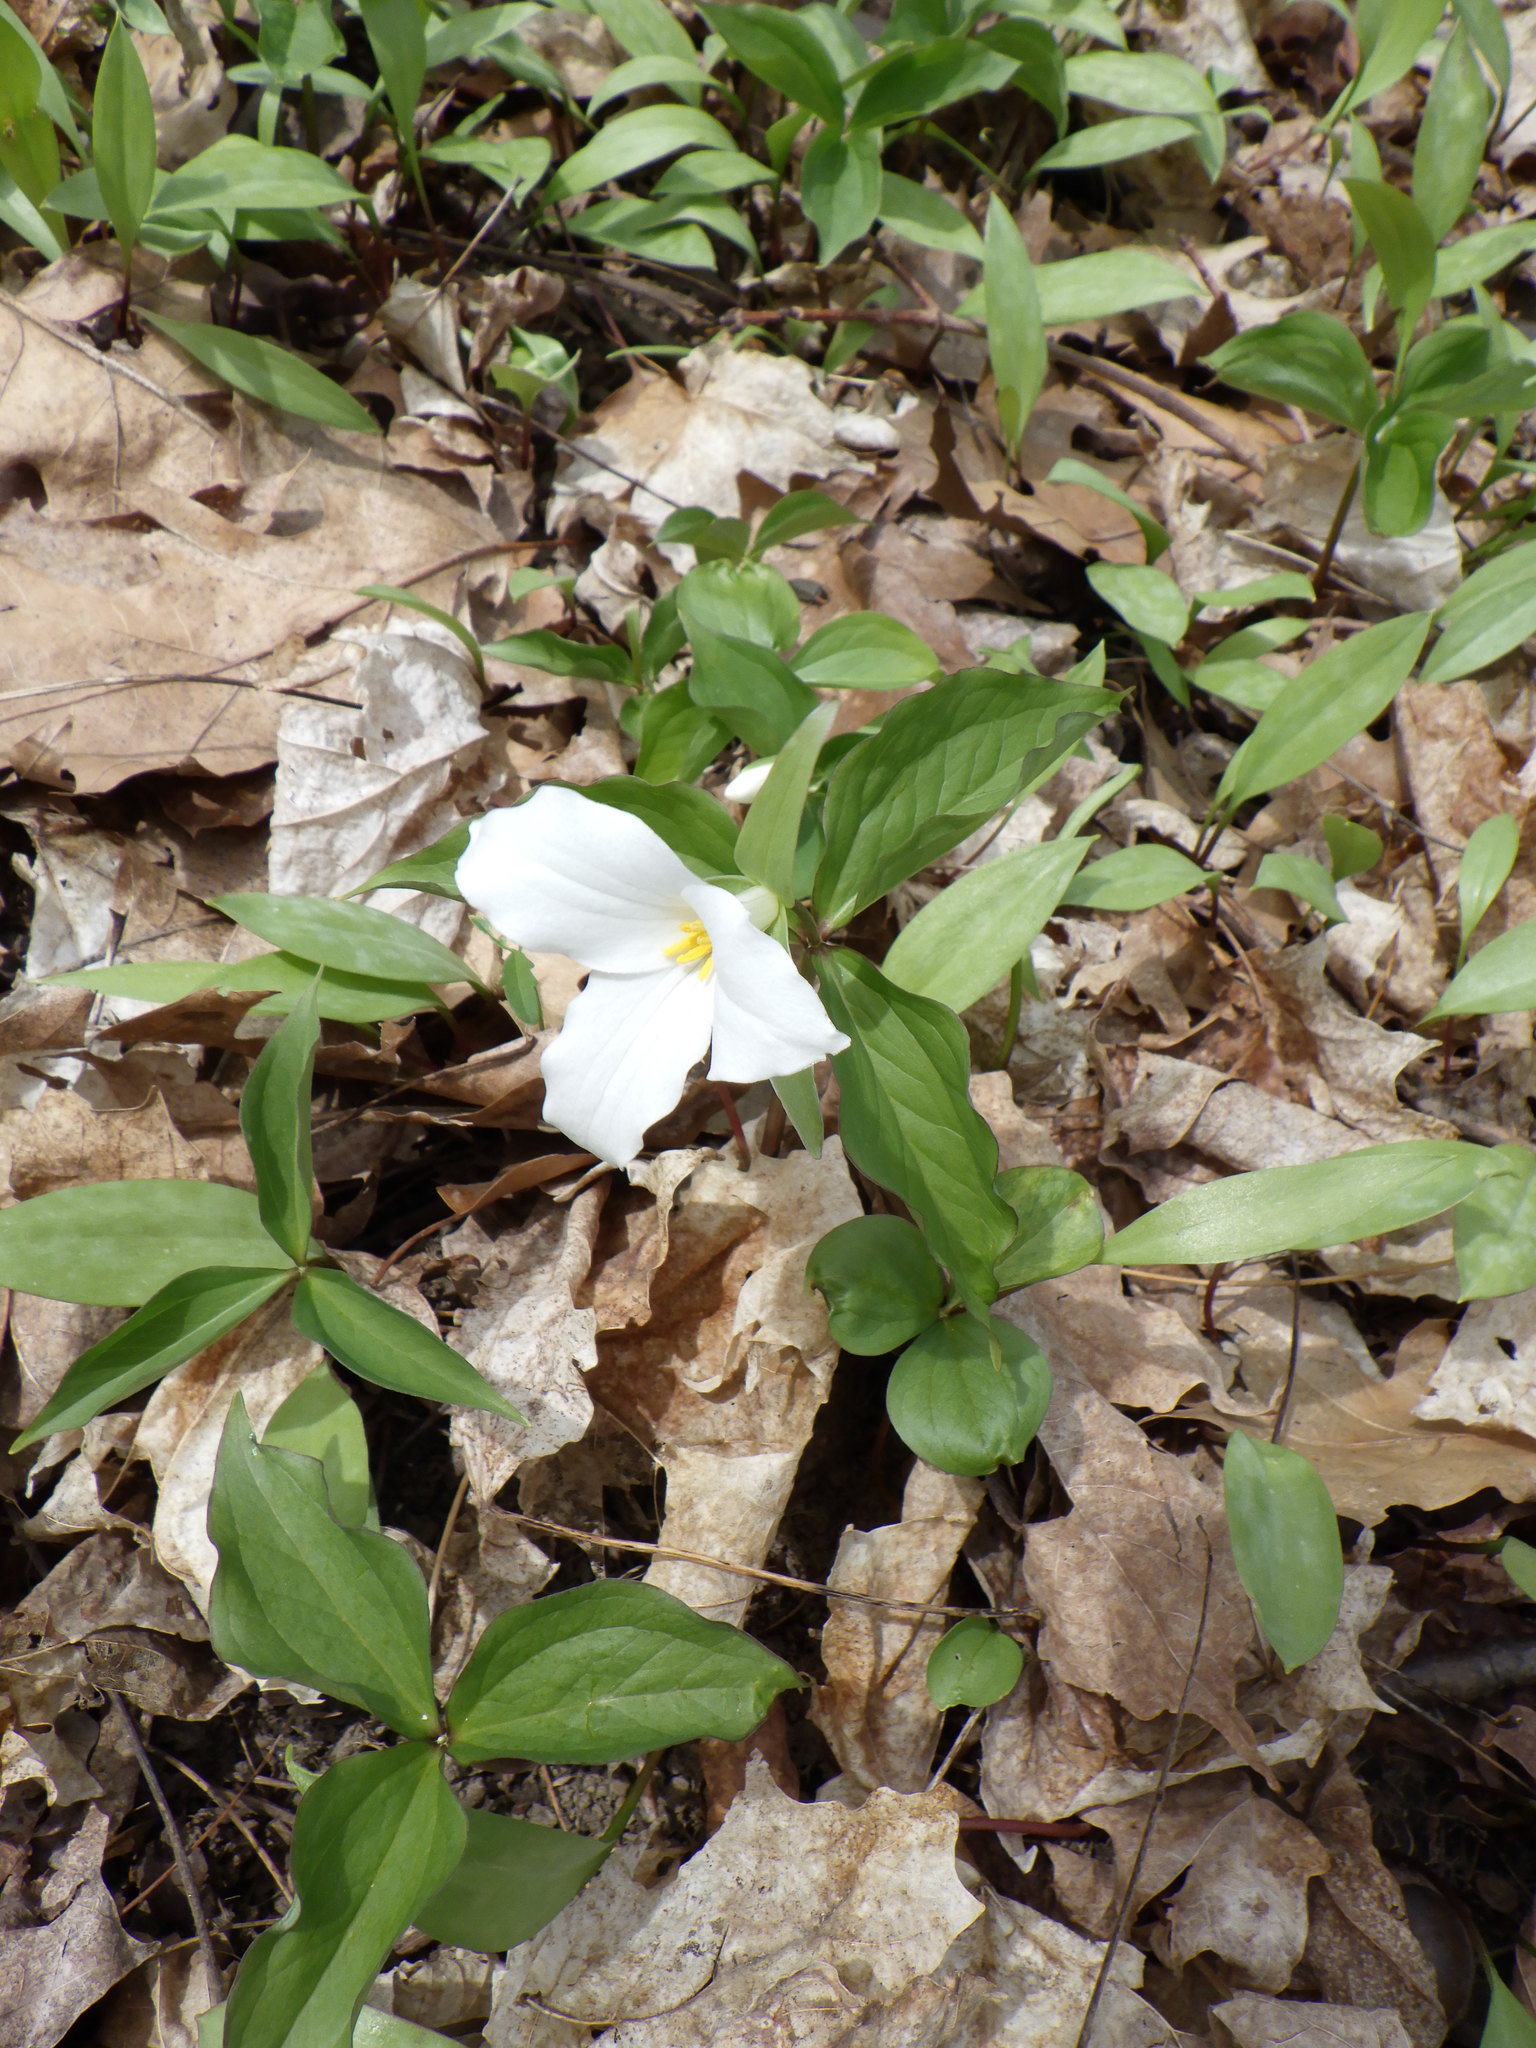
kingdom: Plantae
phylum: Tracheophyta
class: Liliopsida
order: Liliales
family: Melanthiaceae
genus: Trillium
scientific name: Trillium grandiflorum
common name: Great white trillium
